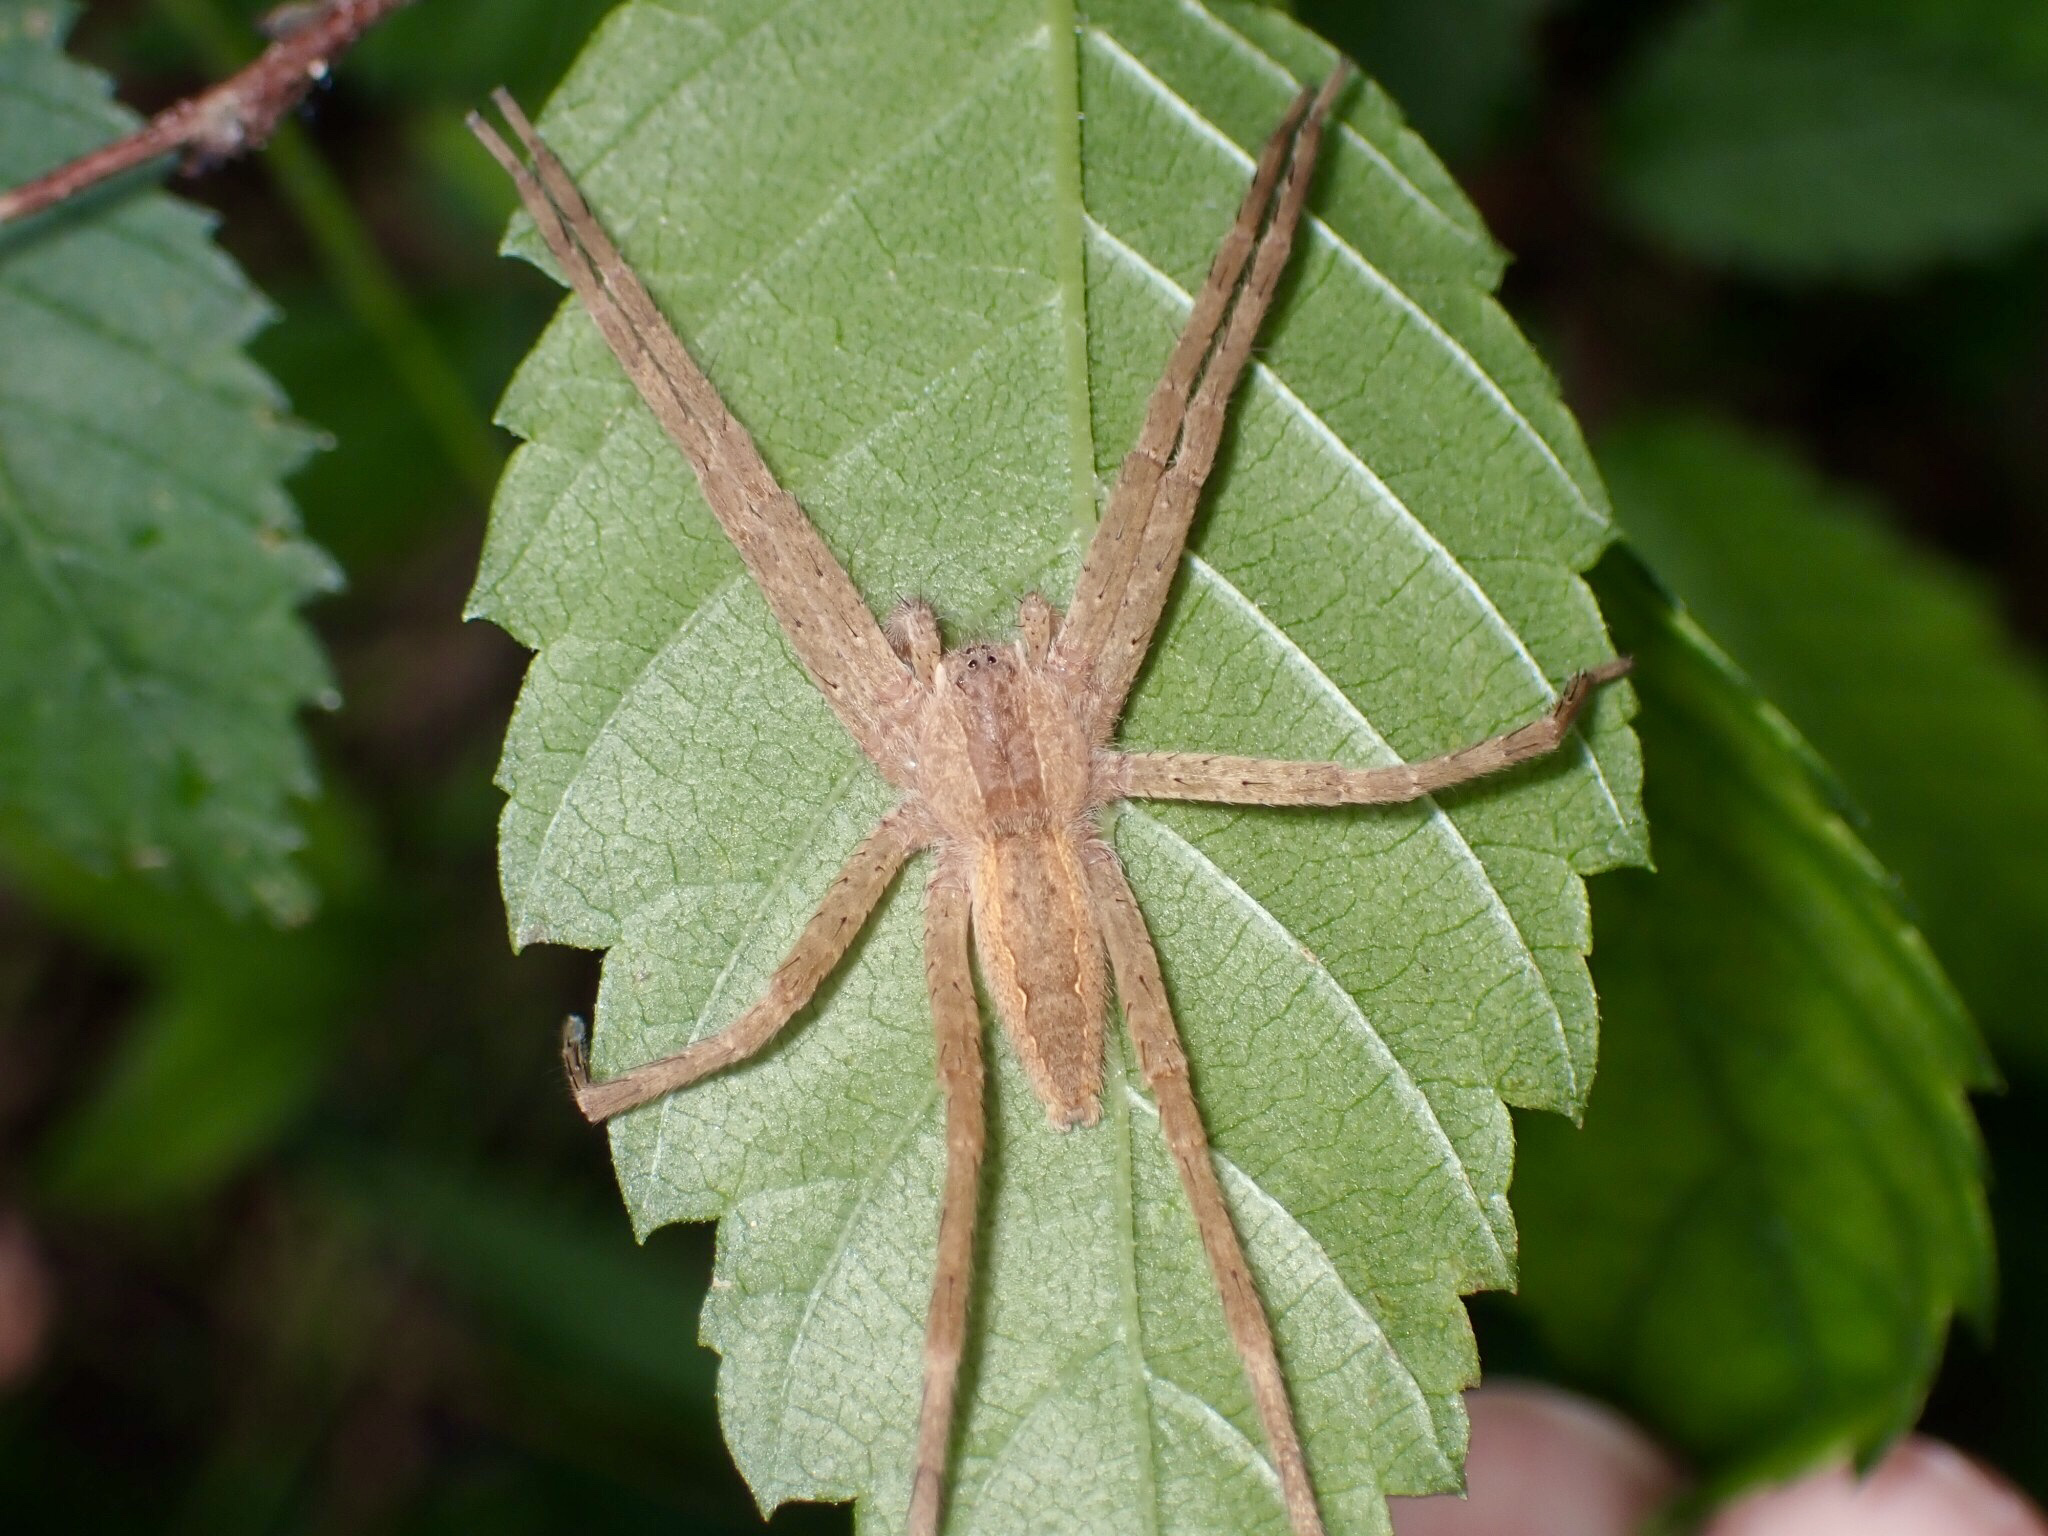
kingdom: Animalia
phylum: Arthropoda
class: Arachnida
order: Araneae
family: Pisauridae
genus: Pisaurina
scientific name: Pisaurina mira
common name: American nursery web spider
